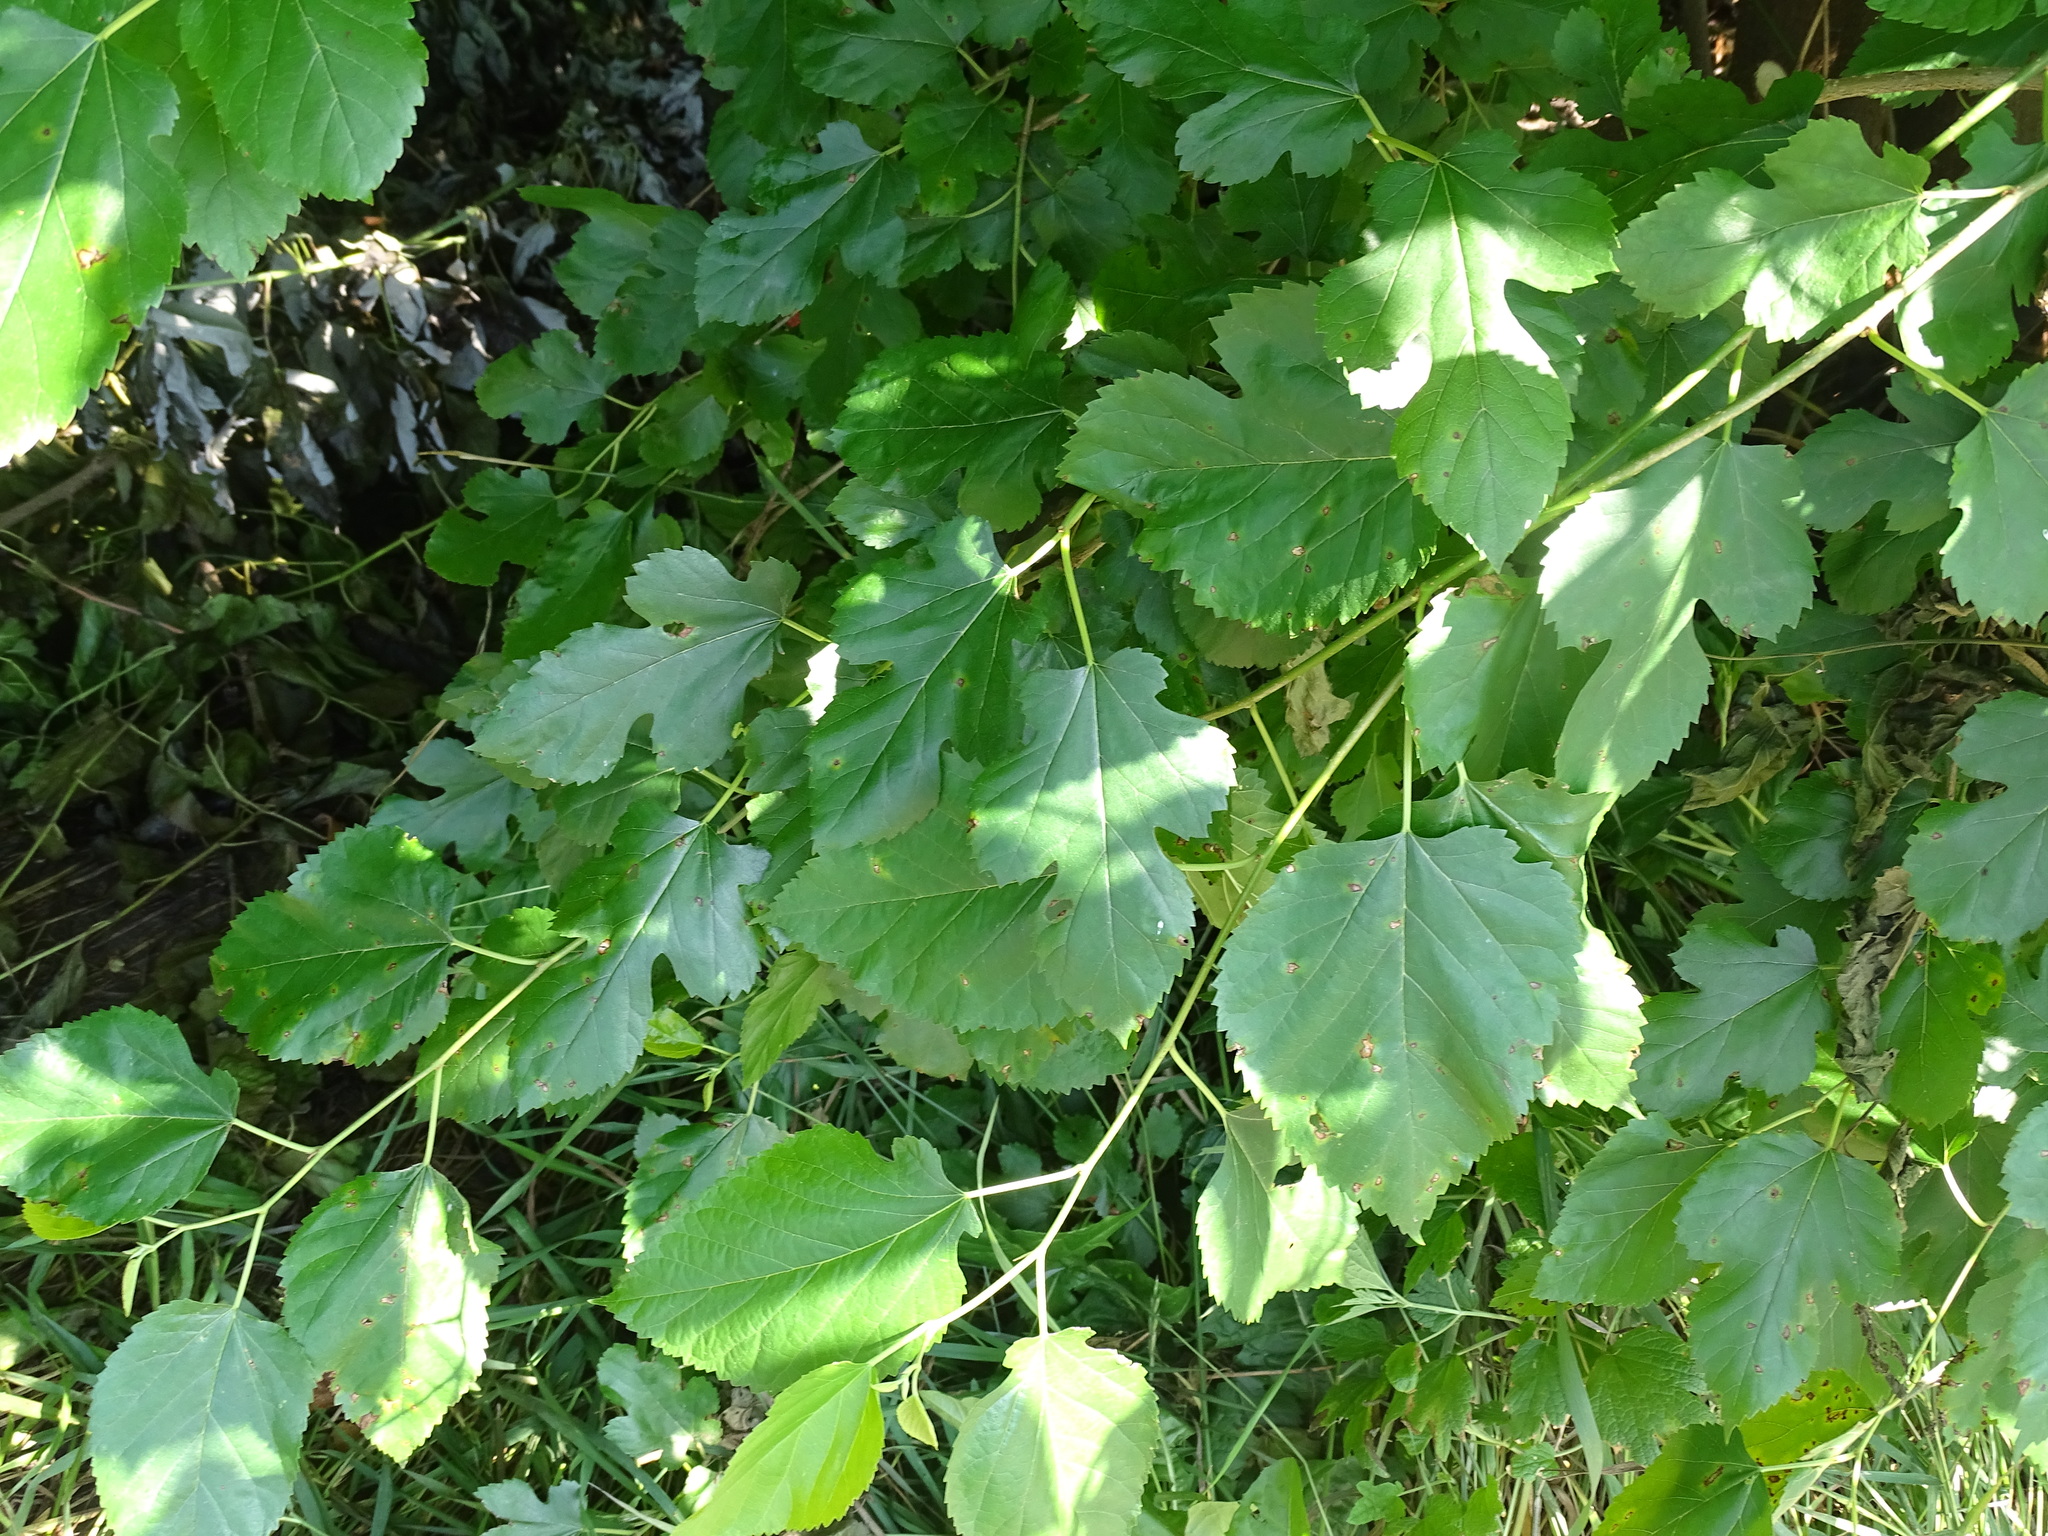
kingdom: Plantae
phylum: Tracheophyta
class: Magnoliopsida
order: Rosales
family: Moraceae
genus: Morus
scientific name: Morus alba
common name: White mulberry
